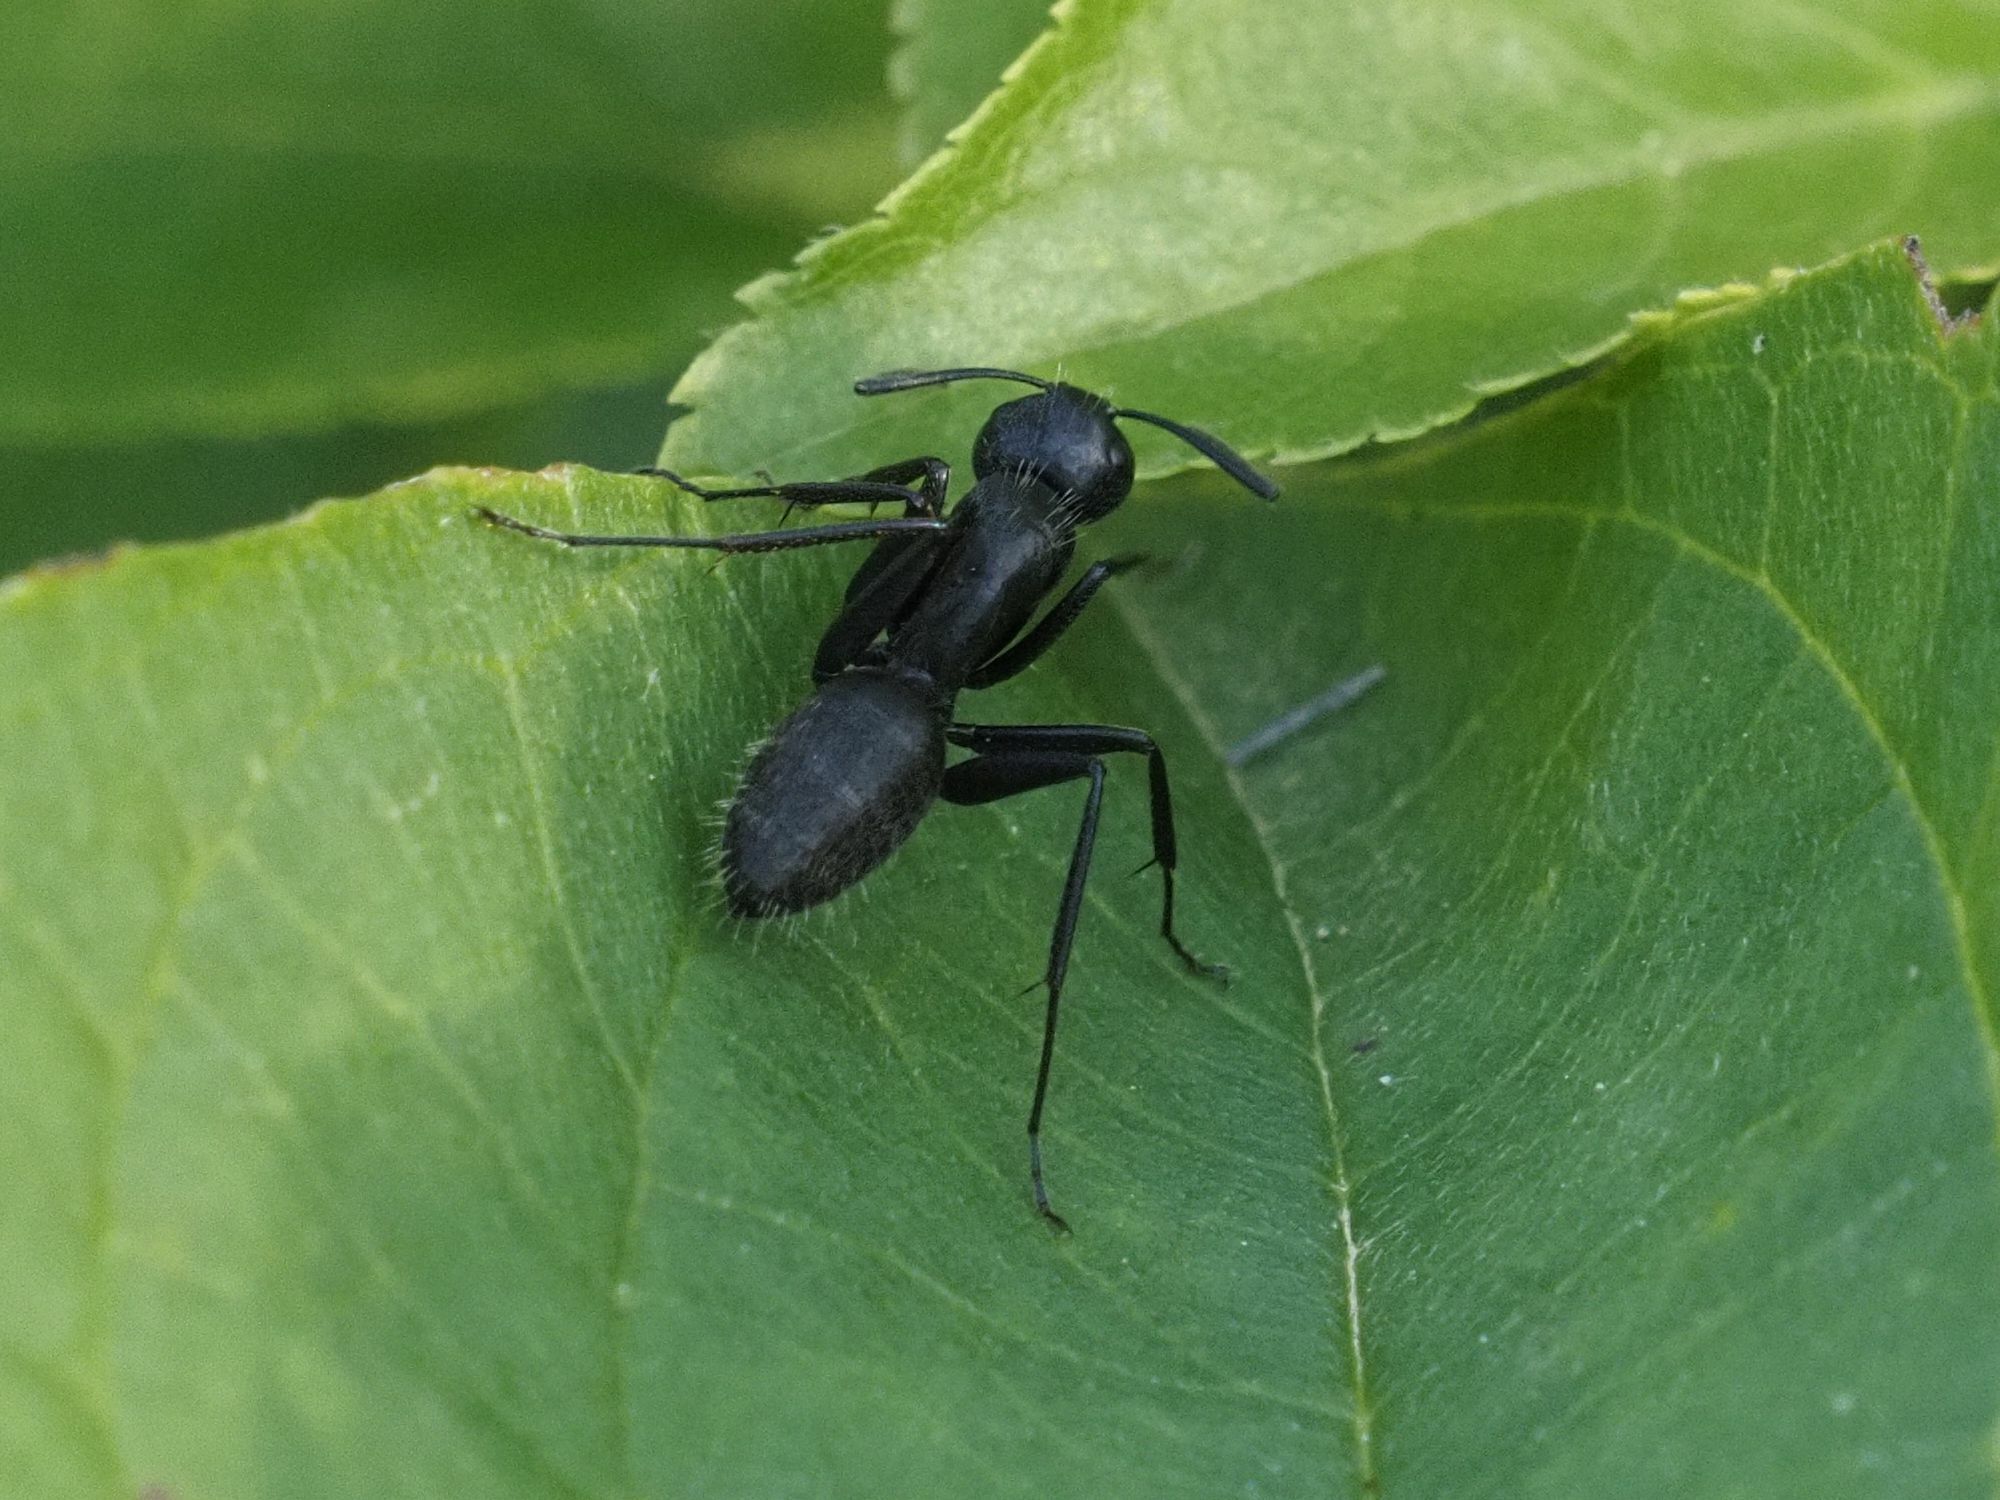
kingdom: Animalia
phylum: Arthropoda
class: Insecta
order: Hymenoptera
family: Formicidae
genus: Camponotus
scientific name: Camponotus vagus
